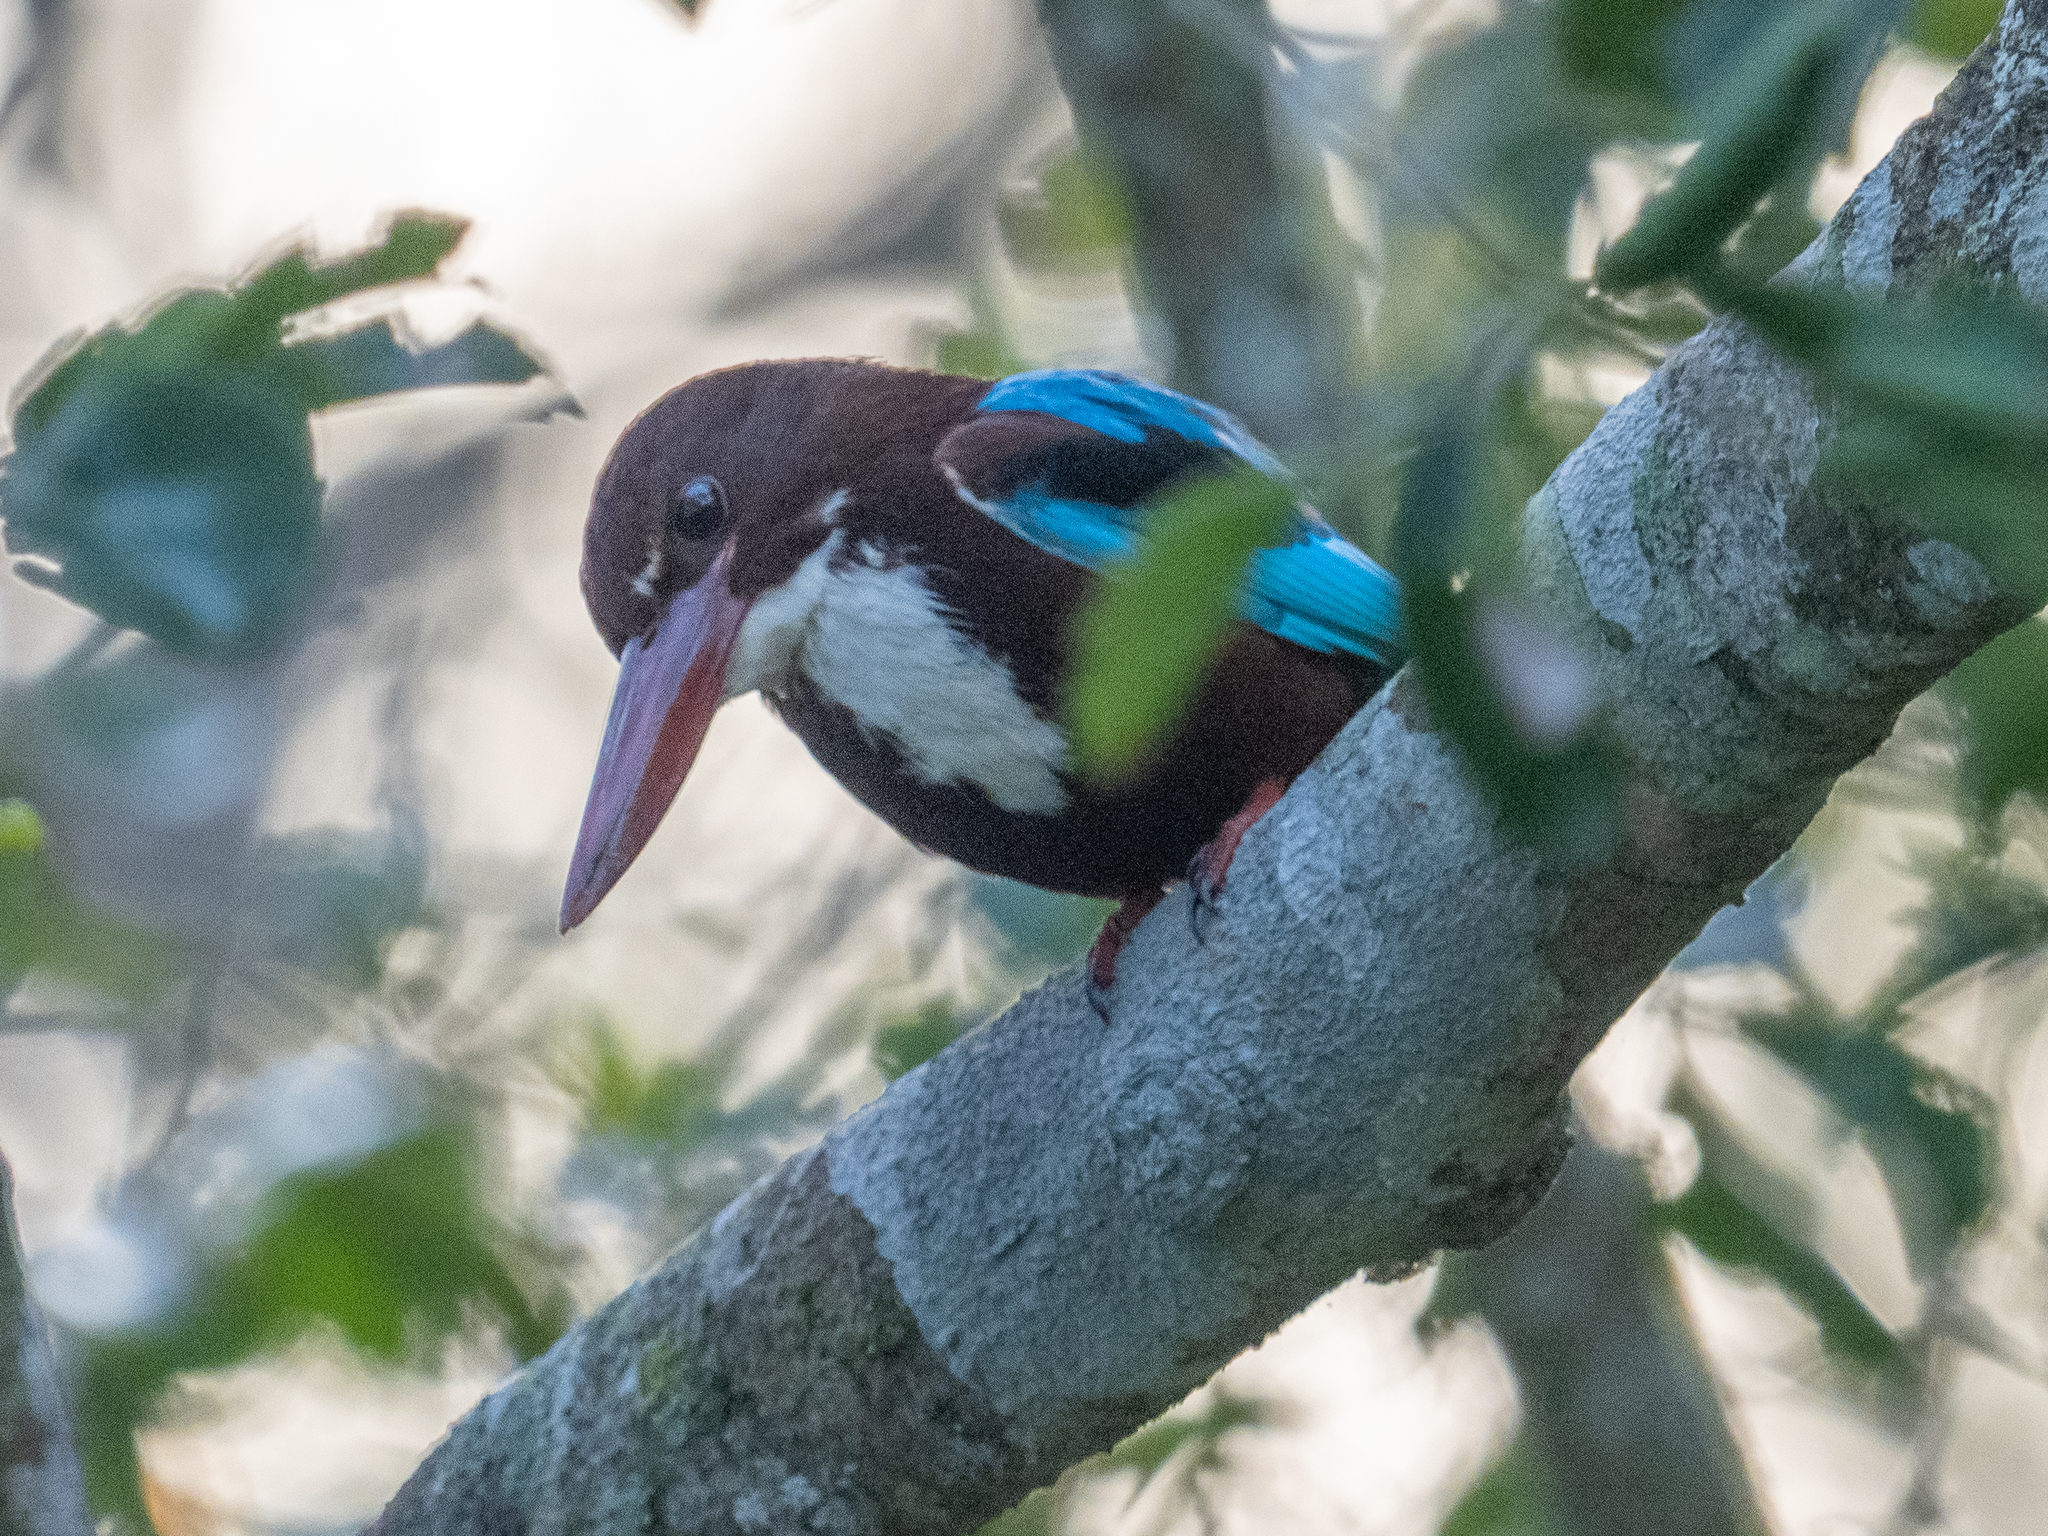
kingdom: Animalia
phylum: Chordata
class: Aves
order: Coraciiformes
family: Alcedinidae
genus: Halcyon
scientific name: Halcyon smyrnensis
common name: White-throated kingfisher
